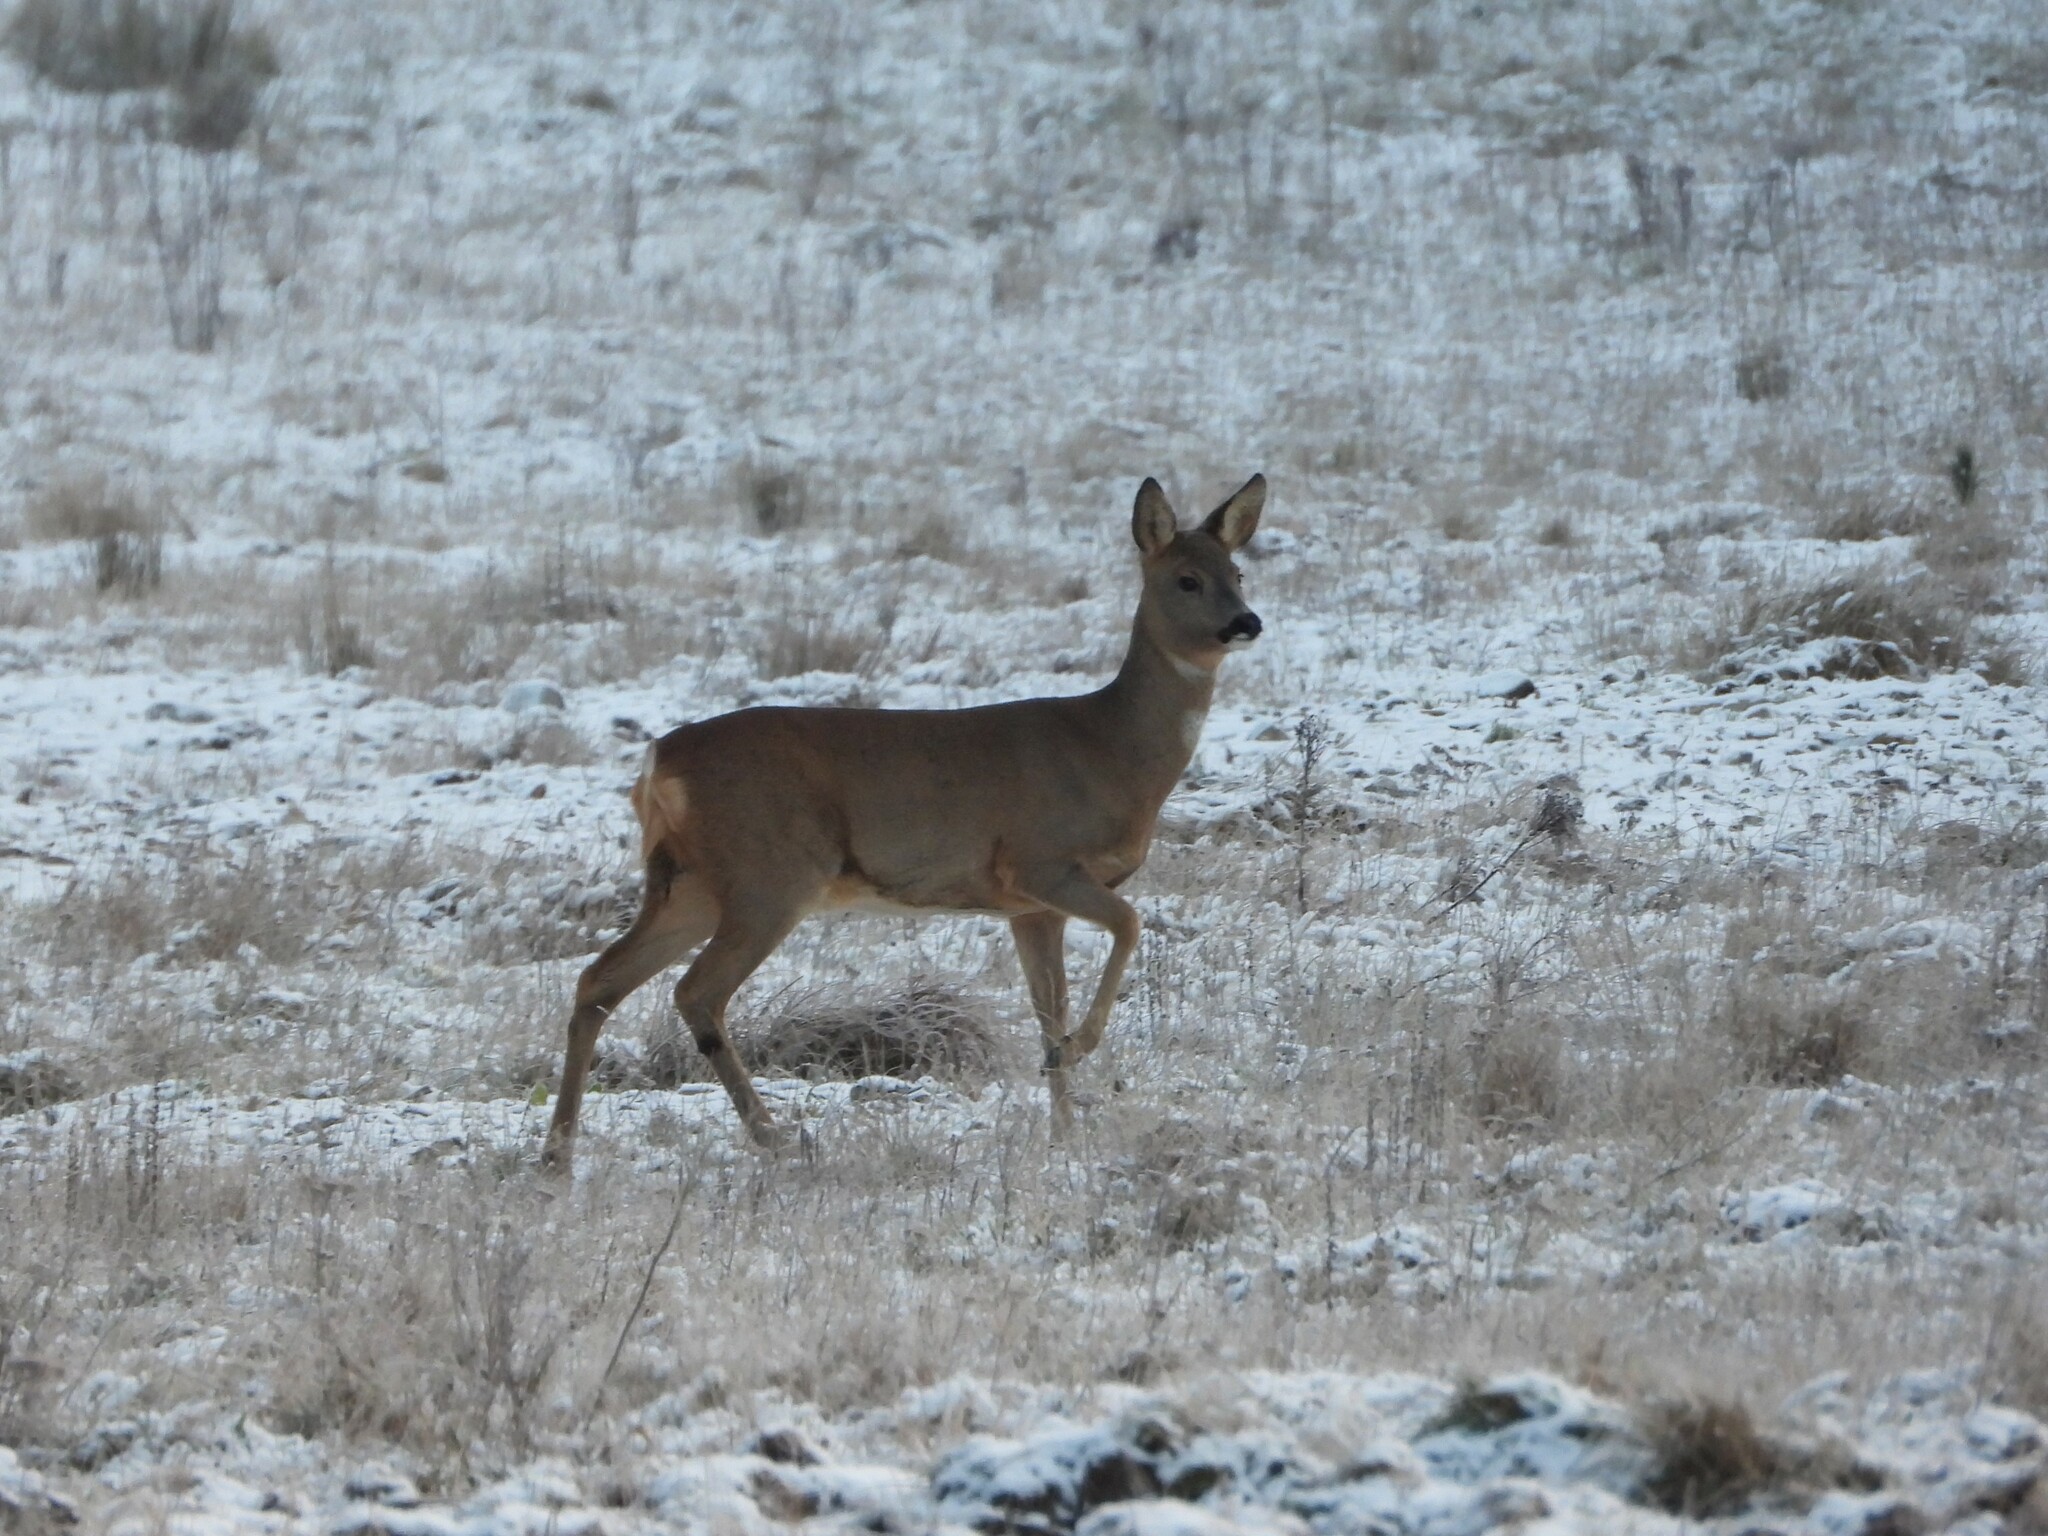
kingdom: Animalia
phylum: Chordata
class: Mammalia
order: Artiodactyla
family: Cervidae
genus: Capreolus
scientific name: Capreolus capreolus
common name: Western roe deer
